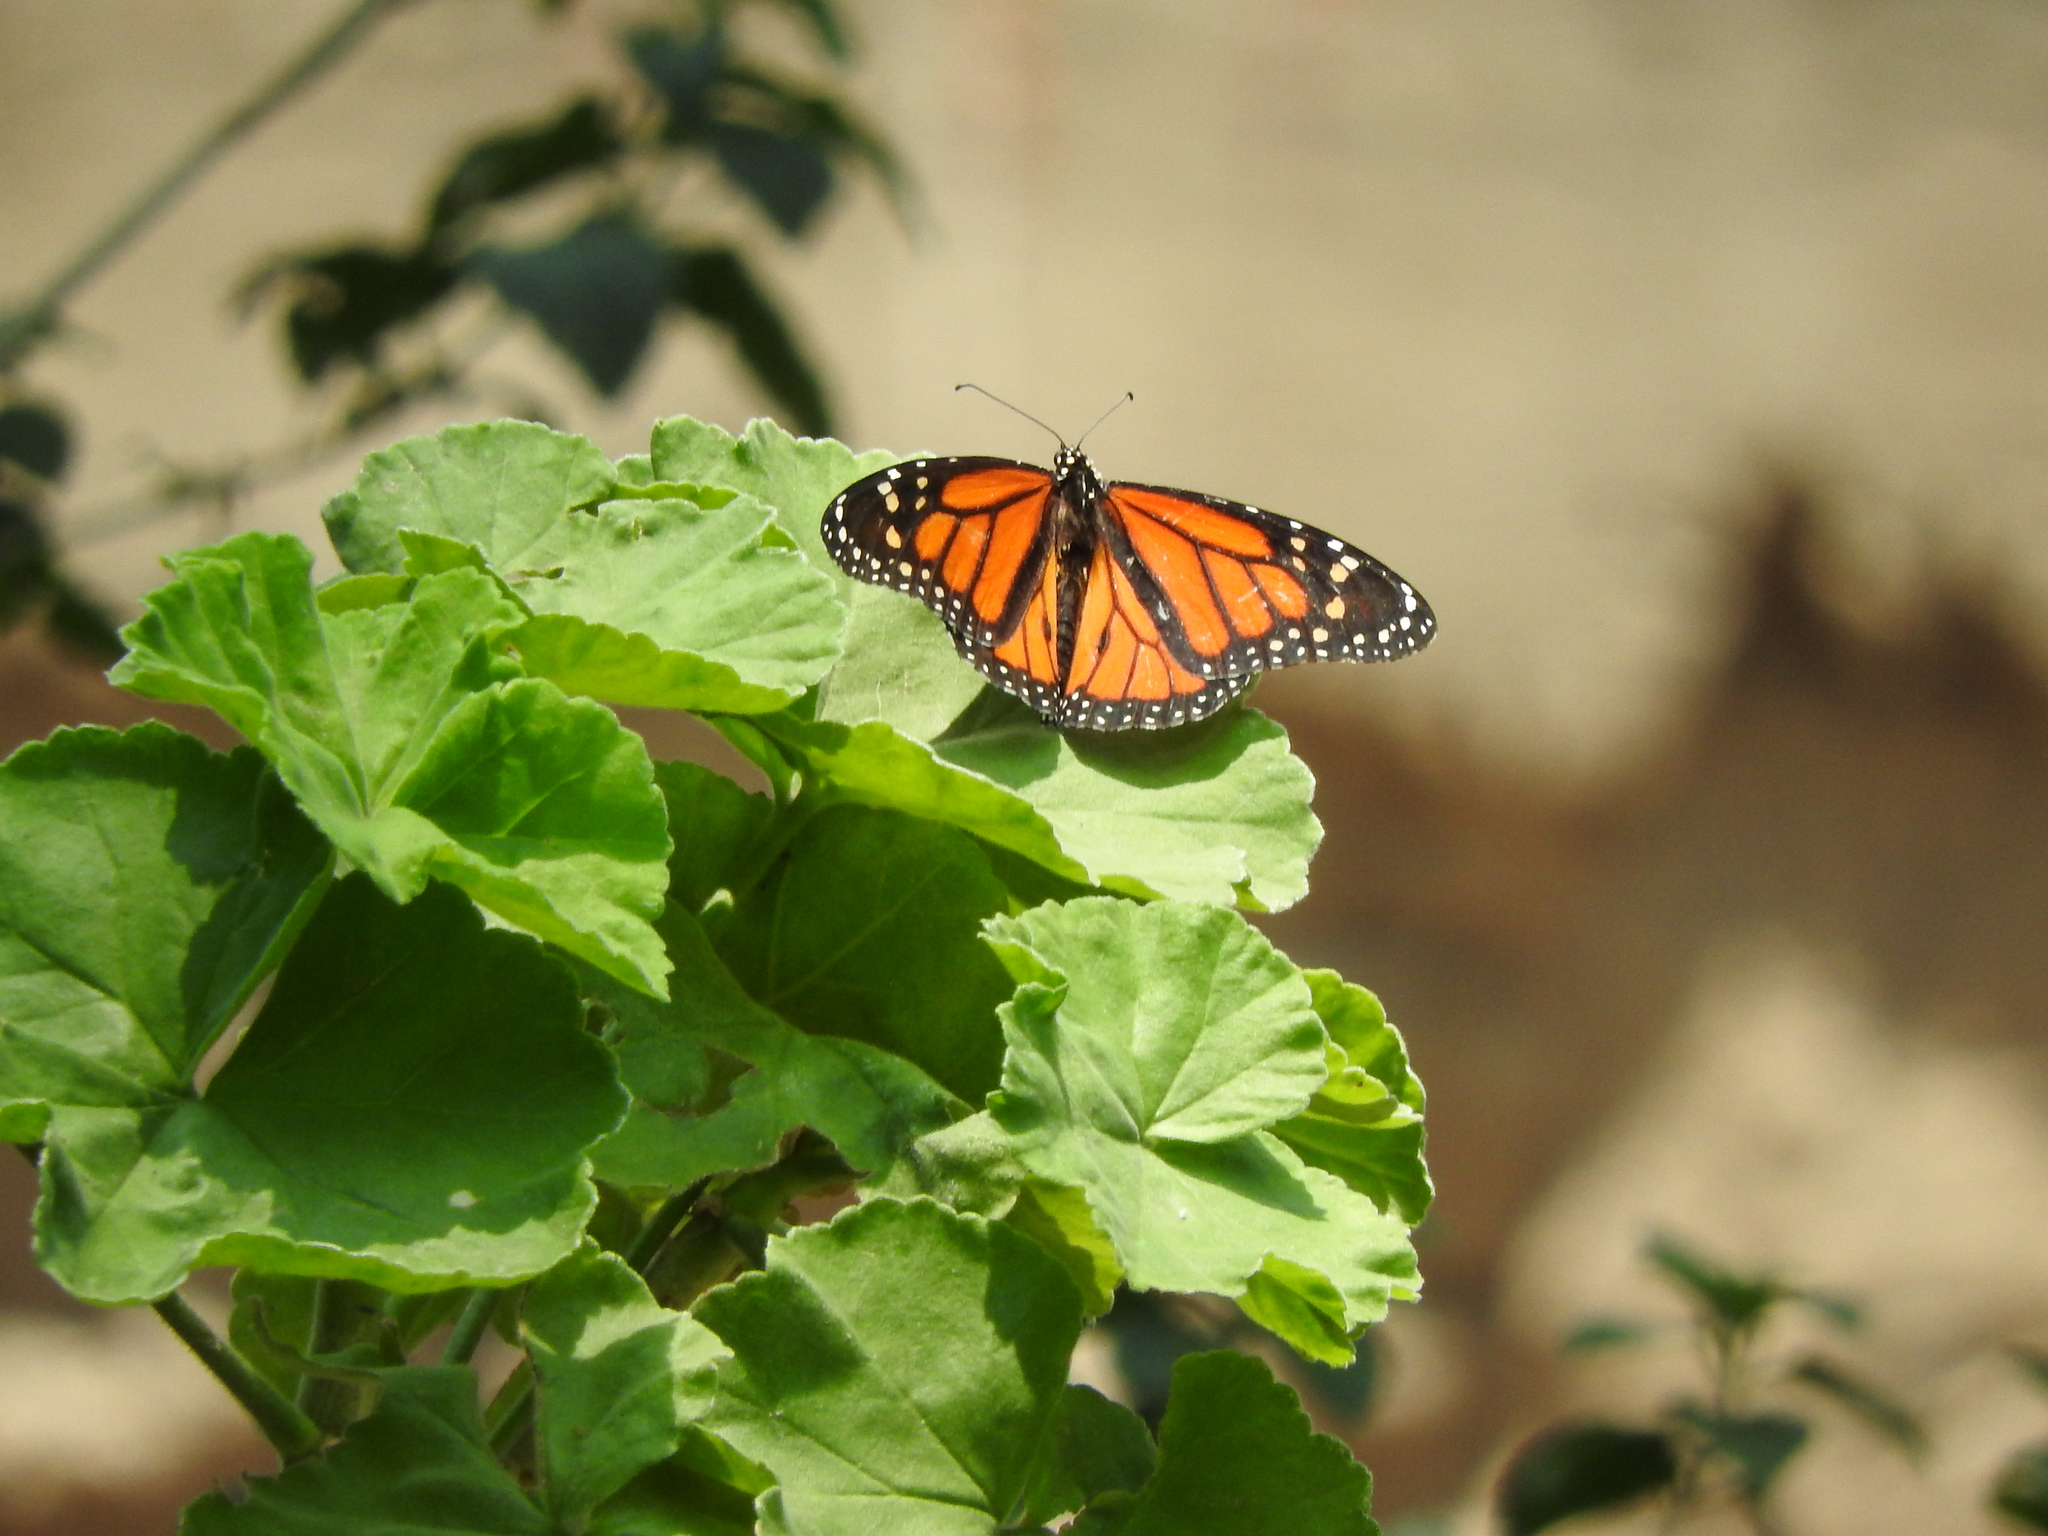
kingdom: Animalia
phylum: Arthropoda
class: Insecta
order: Lepidoptera
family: Nymphalidae
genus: Danaus
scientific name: Danaus plexippus
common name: Monarch
